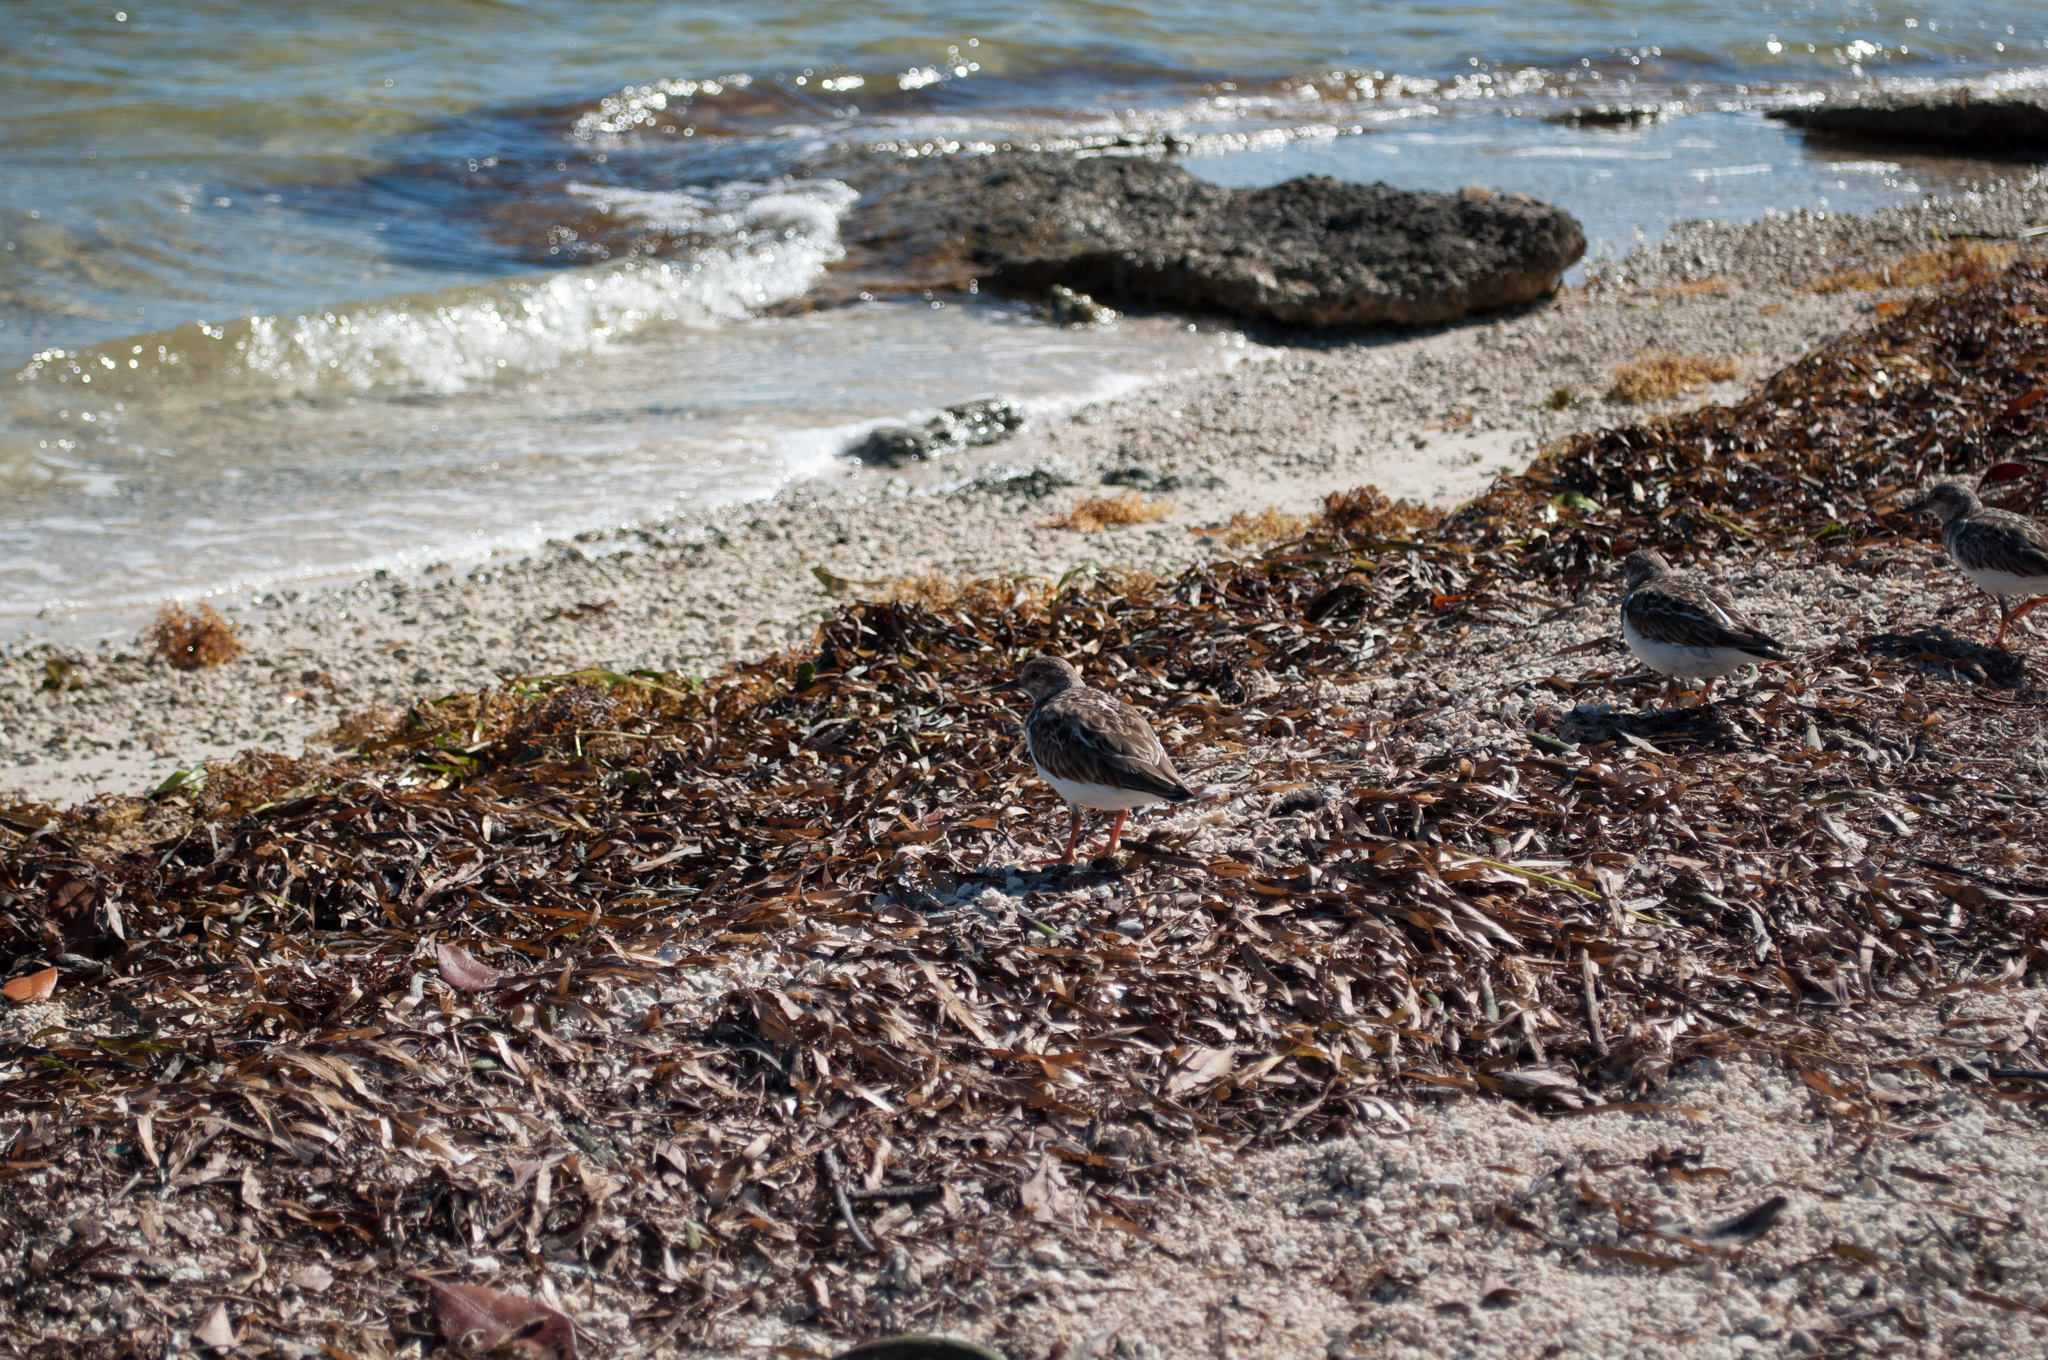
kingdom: Animalia
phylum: Chordata
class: Aves
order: Charadriiformes
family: Scolopacidae
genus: Arenaria
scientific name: Arenaria interpres
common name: Ruddy turnstone
